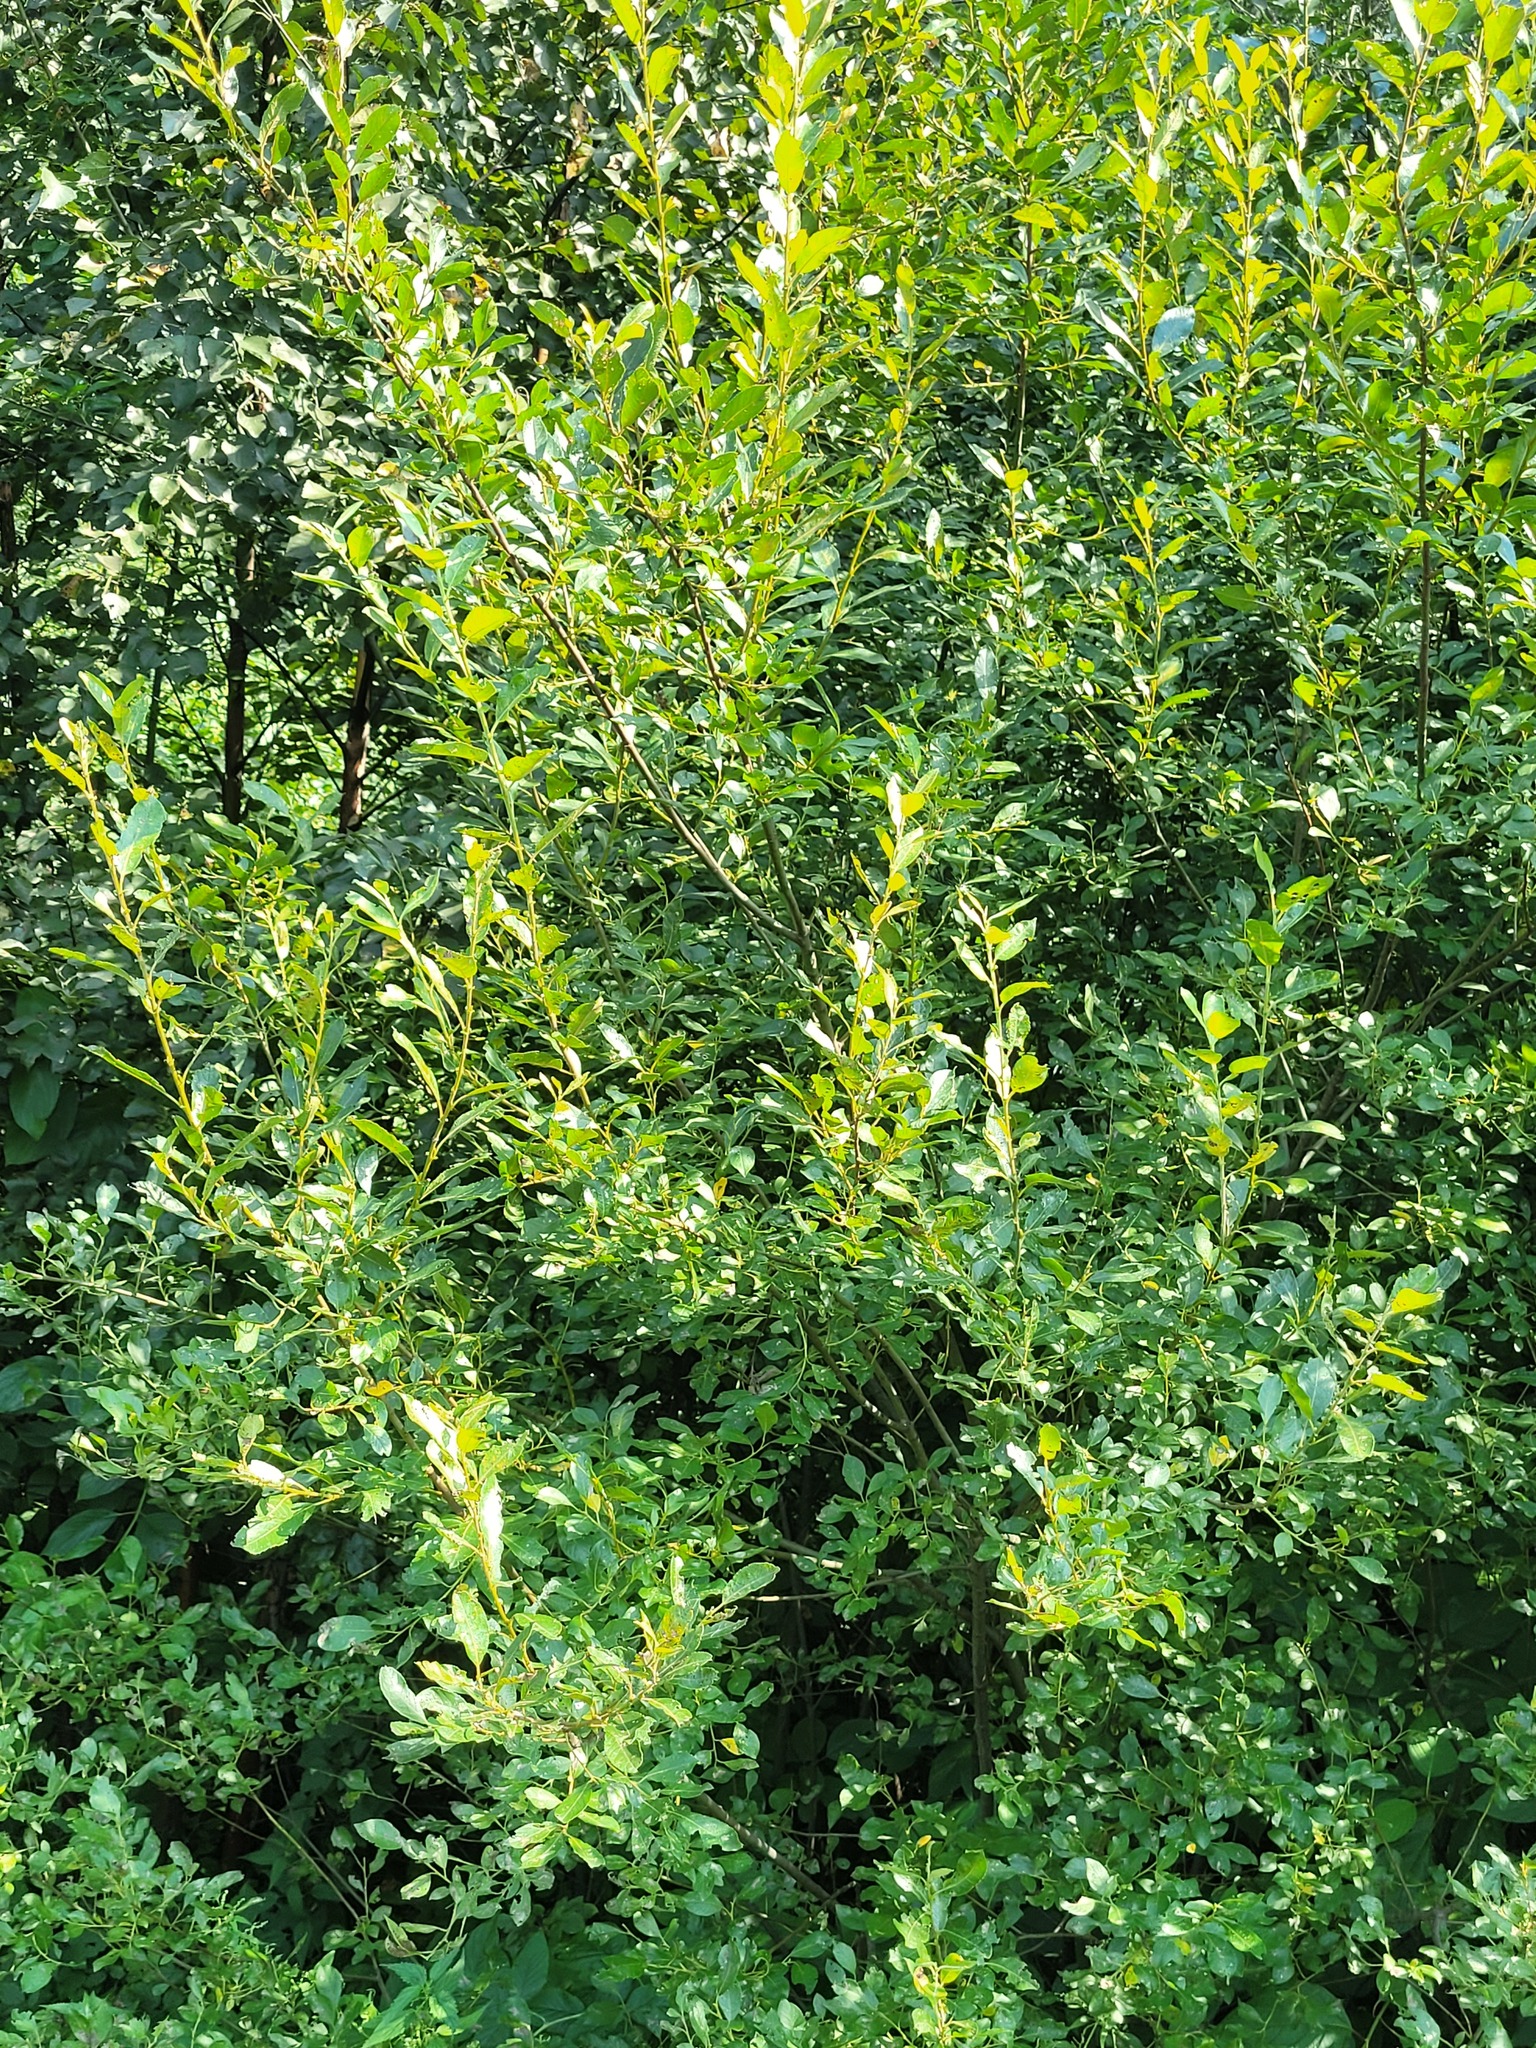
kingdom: Plantae
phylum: Tracheophyta
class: Magnoliopsida
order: Malpighiales
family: Salicaceae
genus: Salix
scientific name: Salix myrsinifolia
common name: Dark-leaved willow
